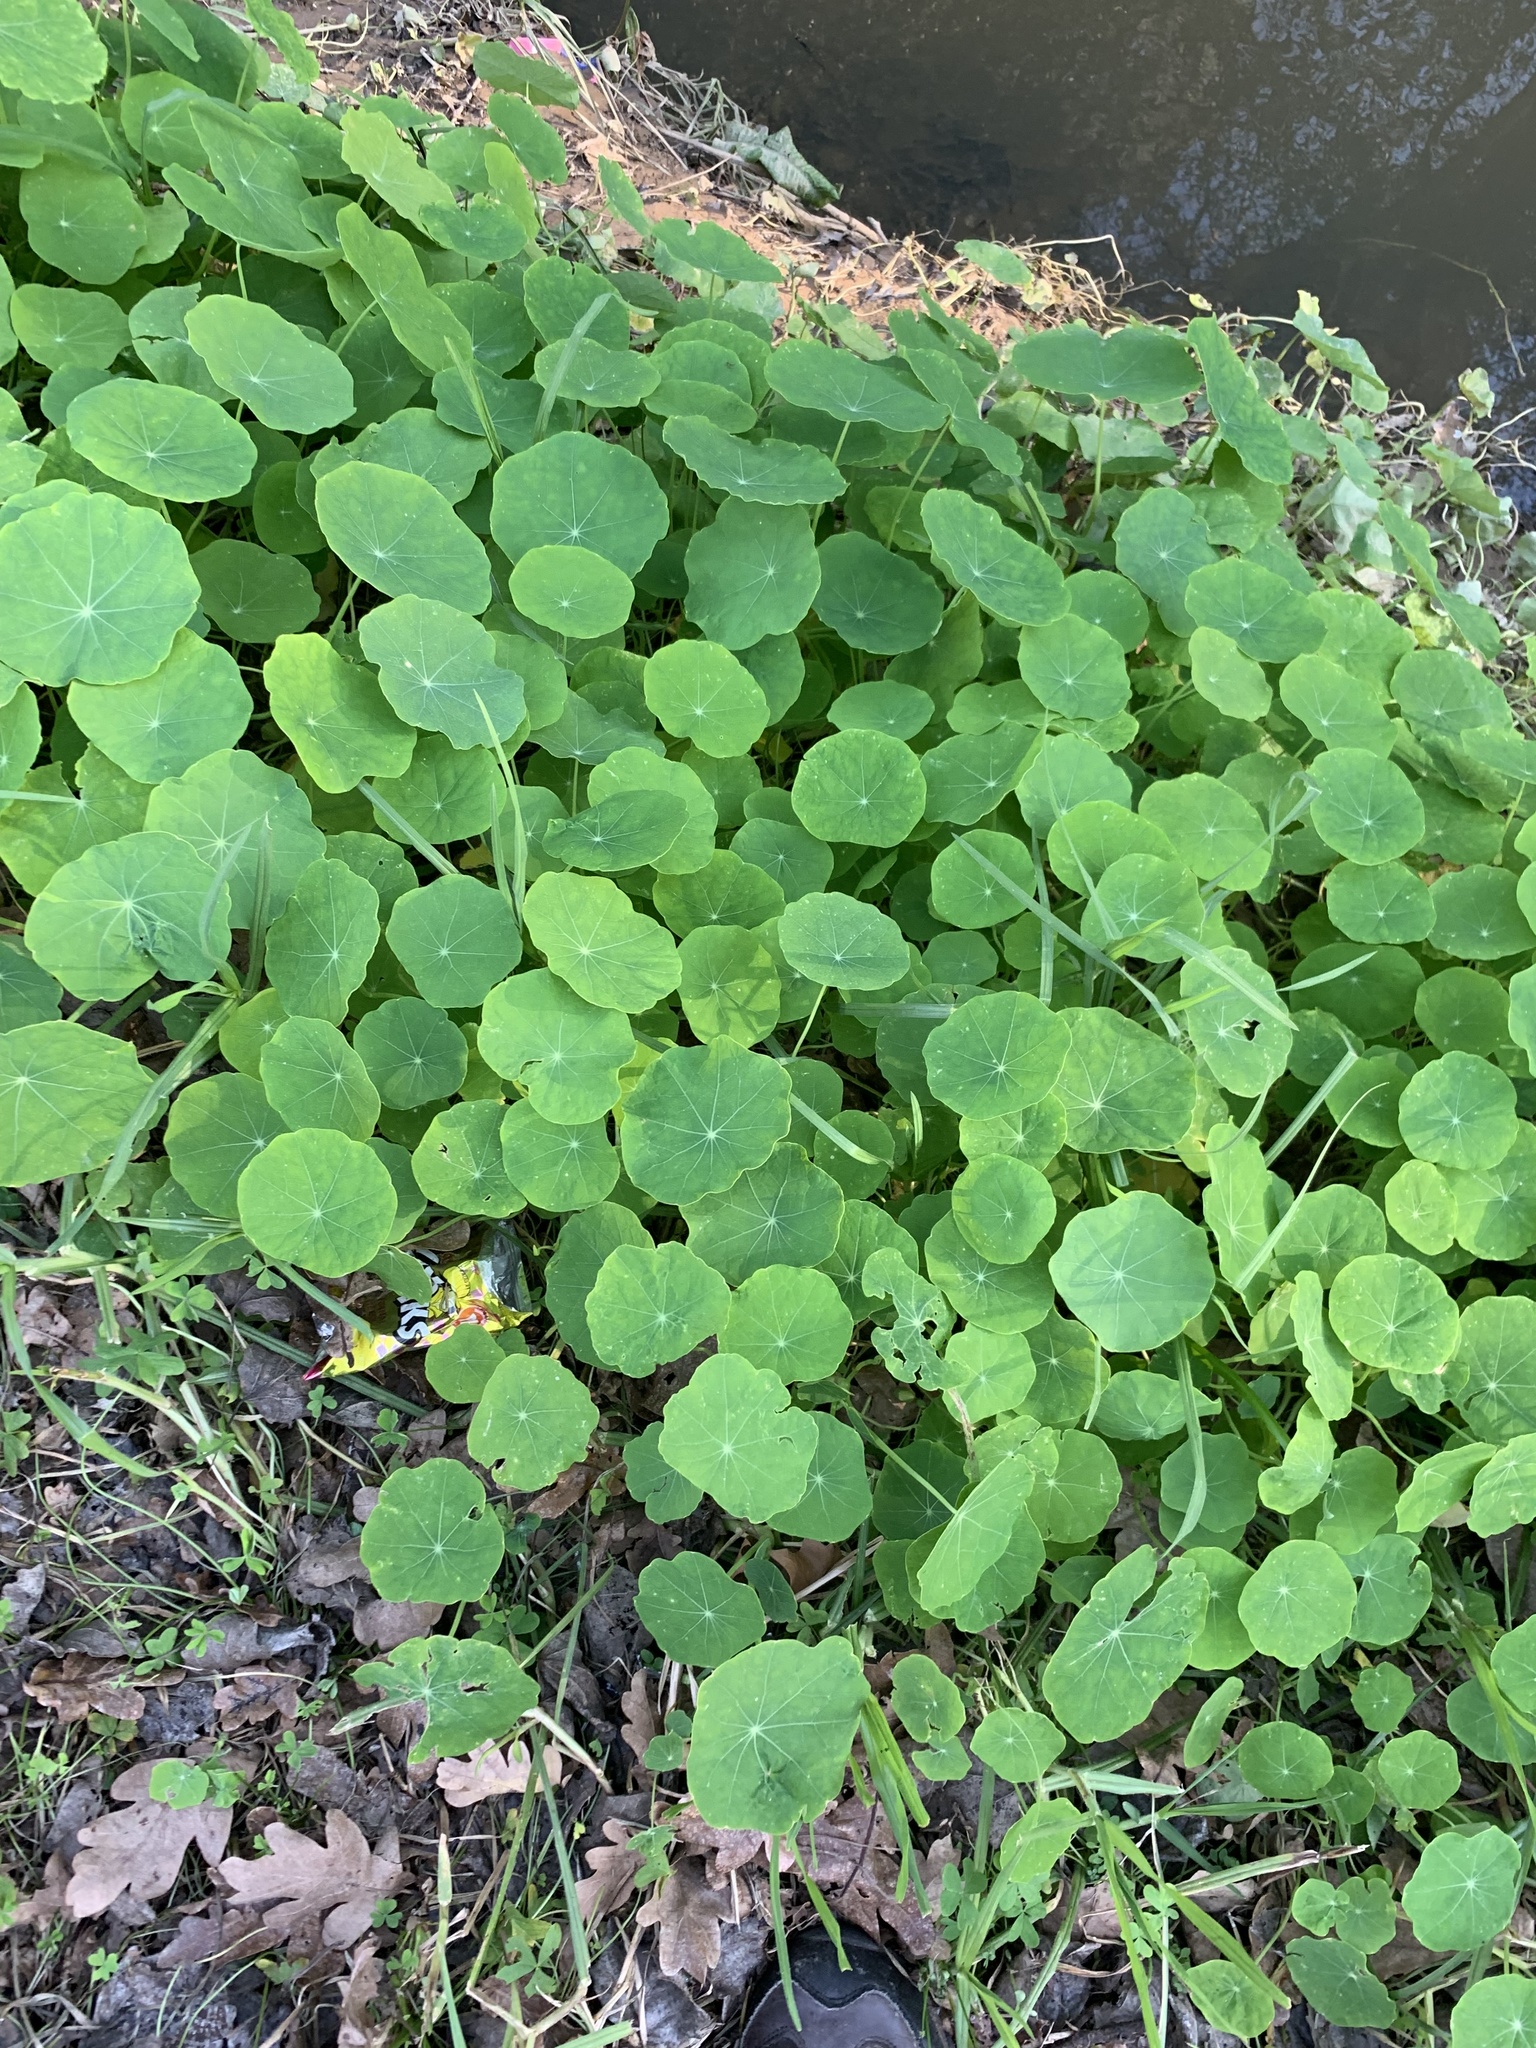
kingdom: Plantae
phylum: Tracheophyta
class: Magnoliopsida
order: Brassicales
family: Tropaeolaceae
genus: Tropaeolum
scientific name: Tropaeolum majus
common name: Nasturtium
